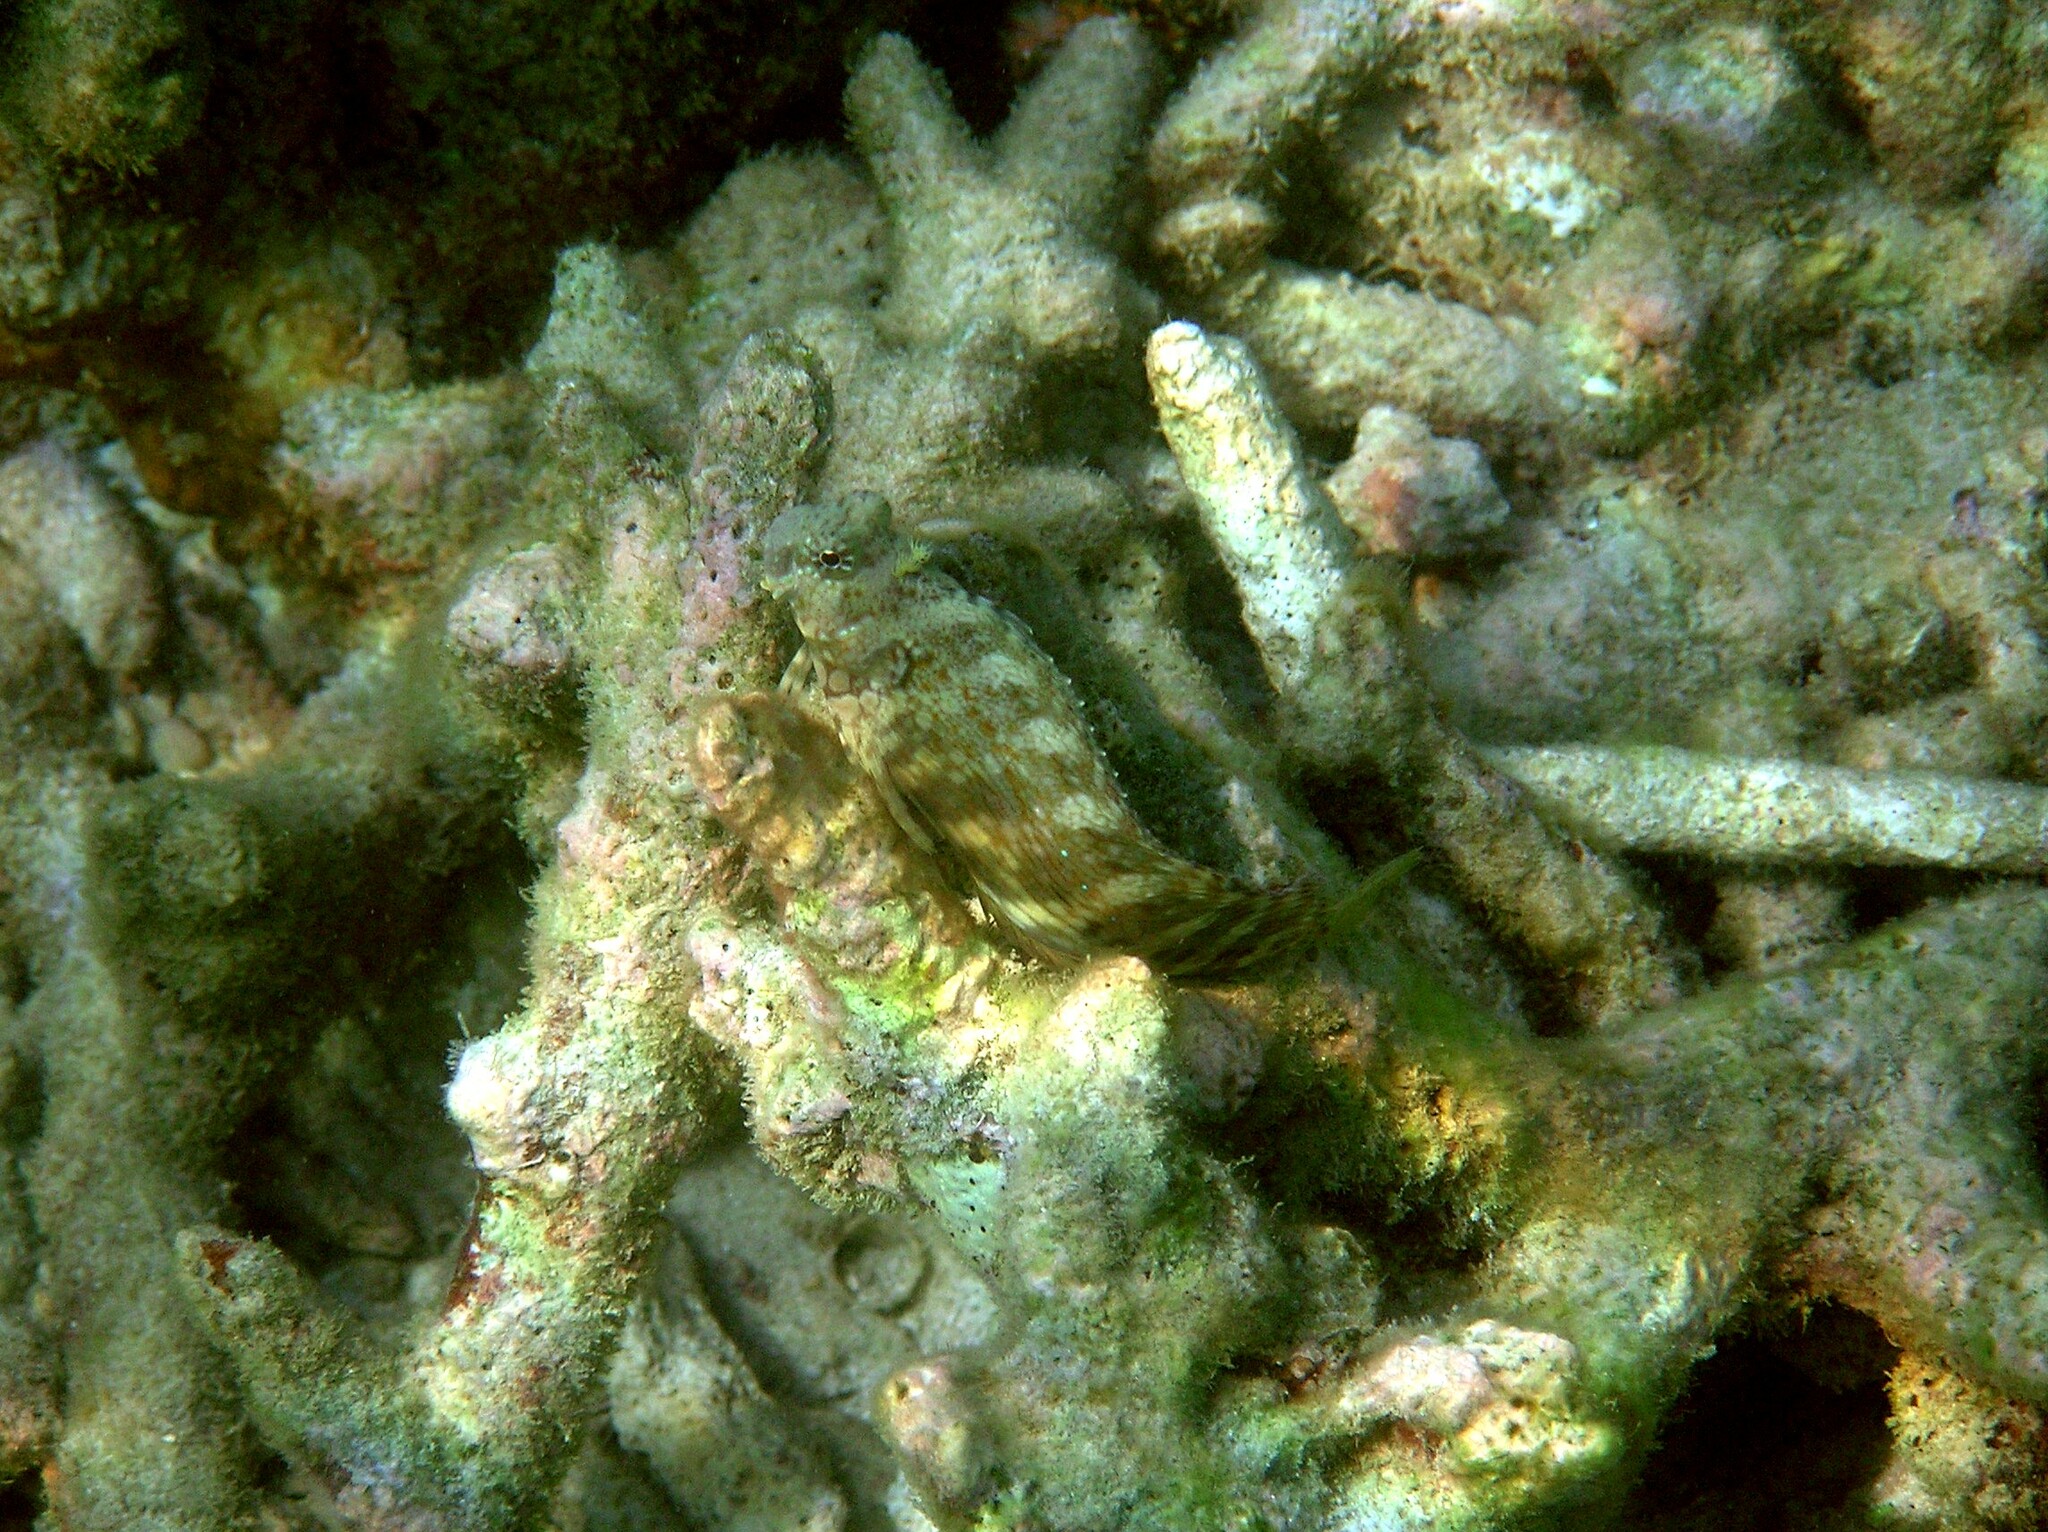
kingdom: Animalia
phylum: Chordata
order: Perciformes
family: Blenniidae
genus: Salarias
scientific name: Salarias fasciatus
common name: Jewelled blenny
